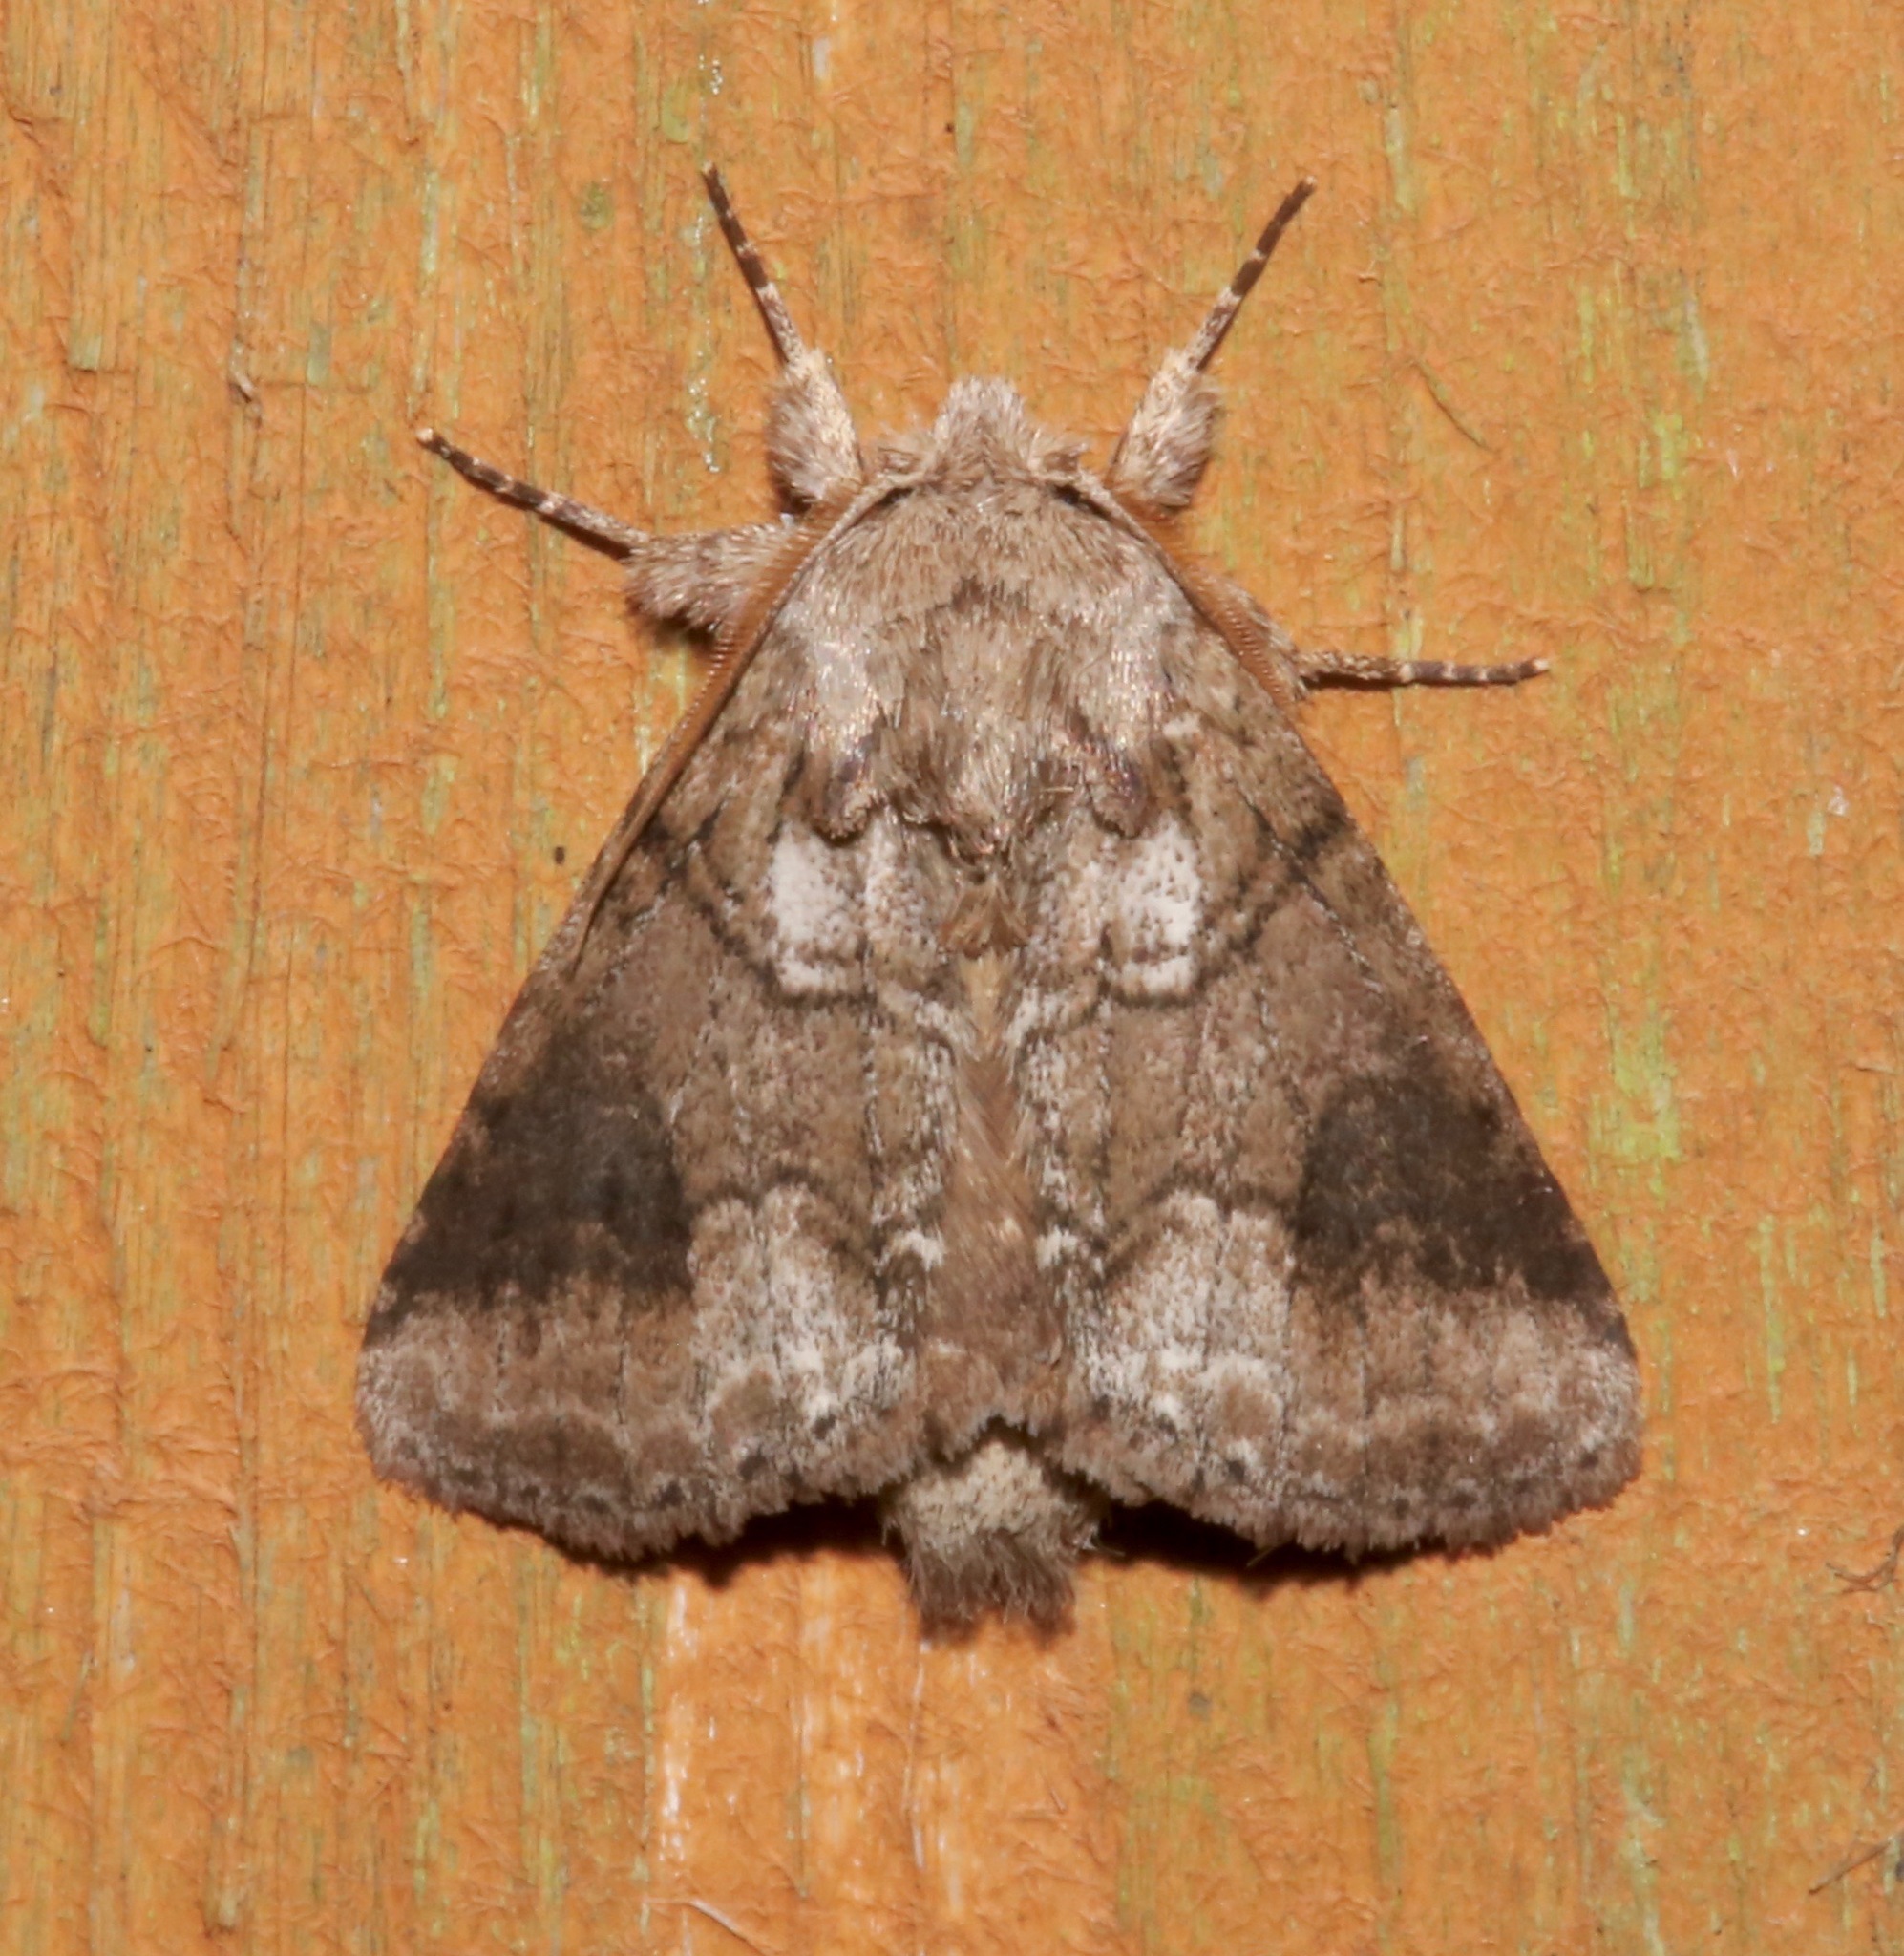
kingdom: Animalia
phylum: Arthropoda
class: Insecta
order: Lepidoptera
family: Notodontidae
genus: Lochmaeus
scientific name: Lochmaeus bilineata
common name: Double-lined prominent
